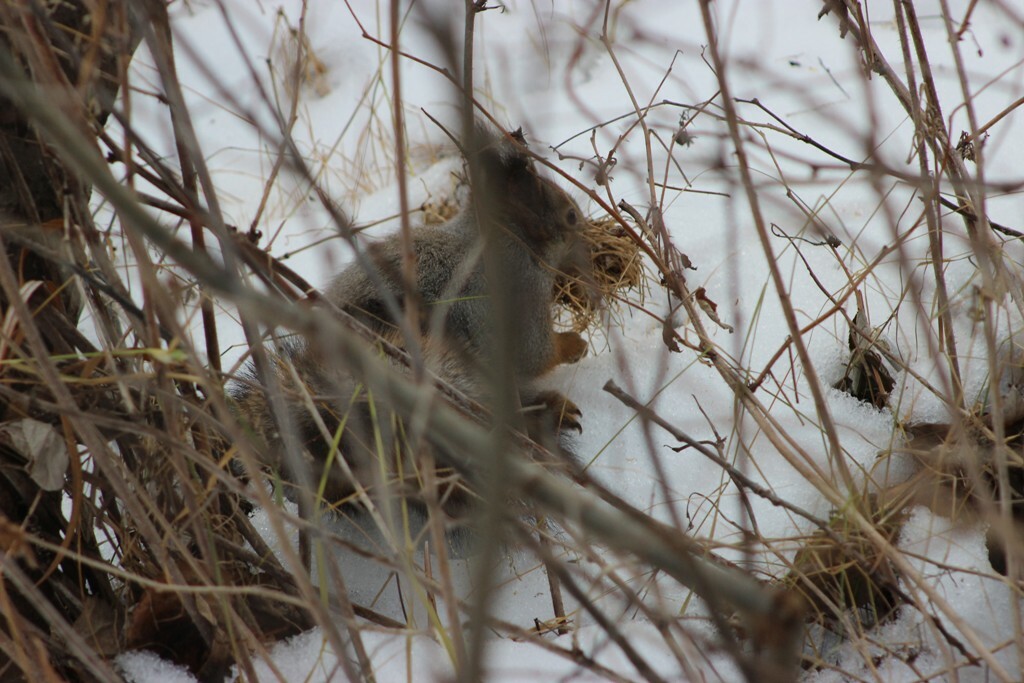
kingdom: Animalia
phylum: Chordata
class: Mammalia
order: Rodentia
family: Sciuridae
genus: Sciurus
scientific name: Sciurus vulgaris
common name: Eurasian red squirrel
